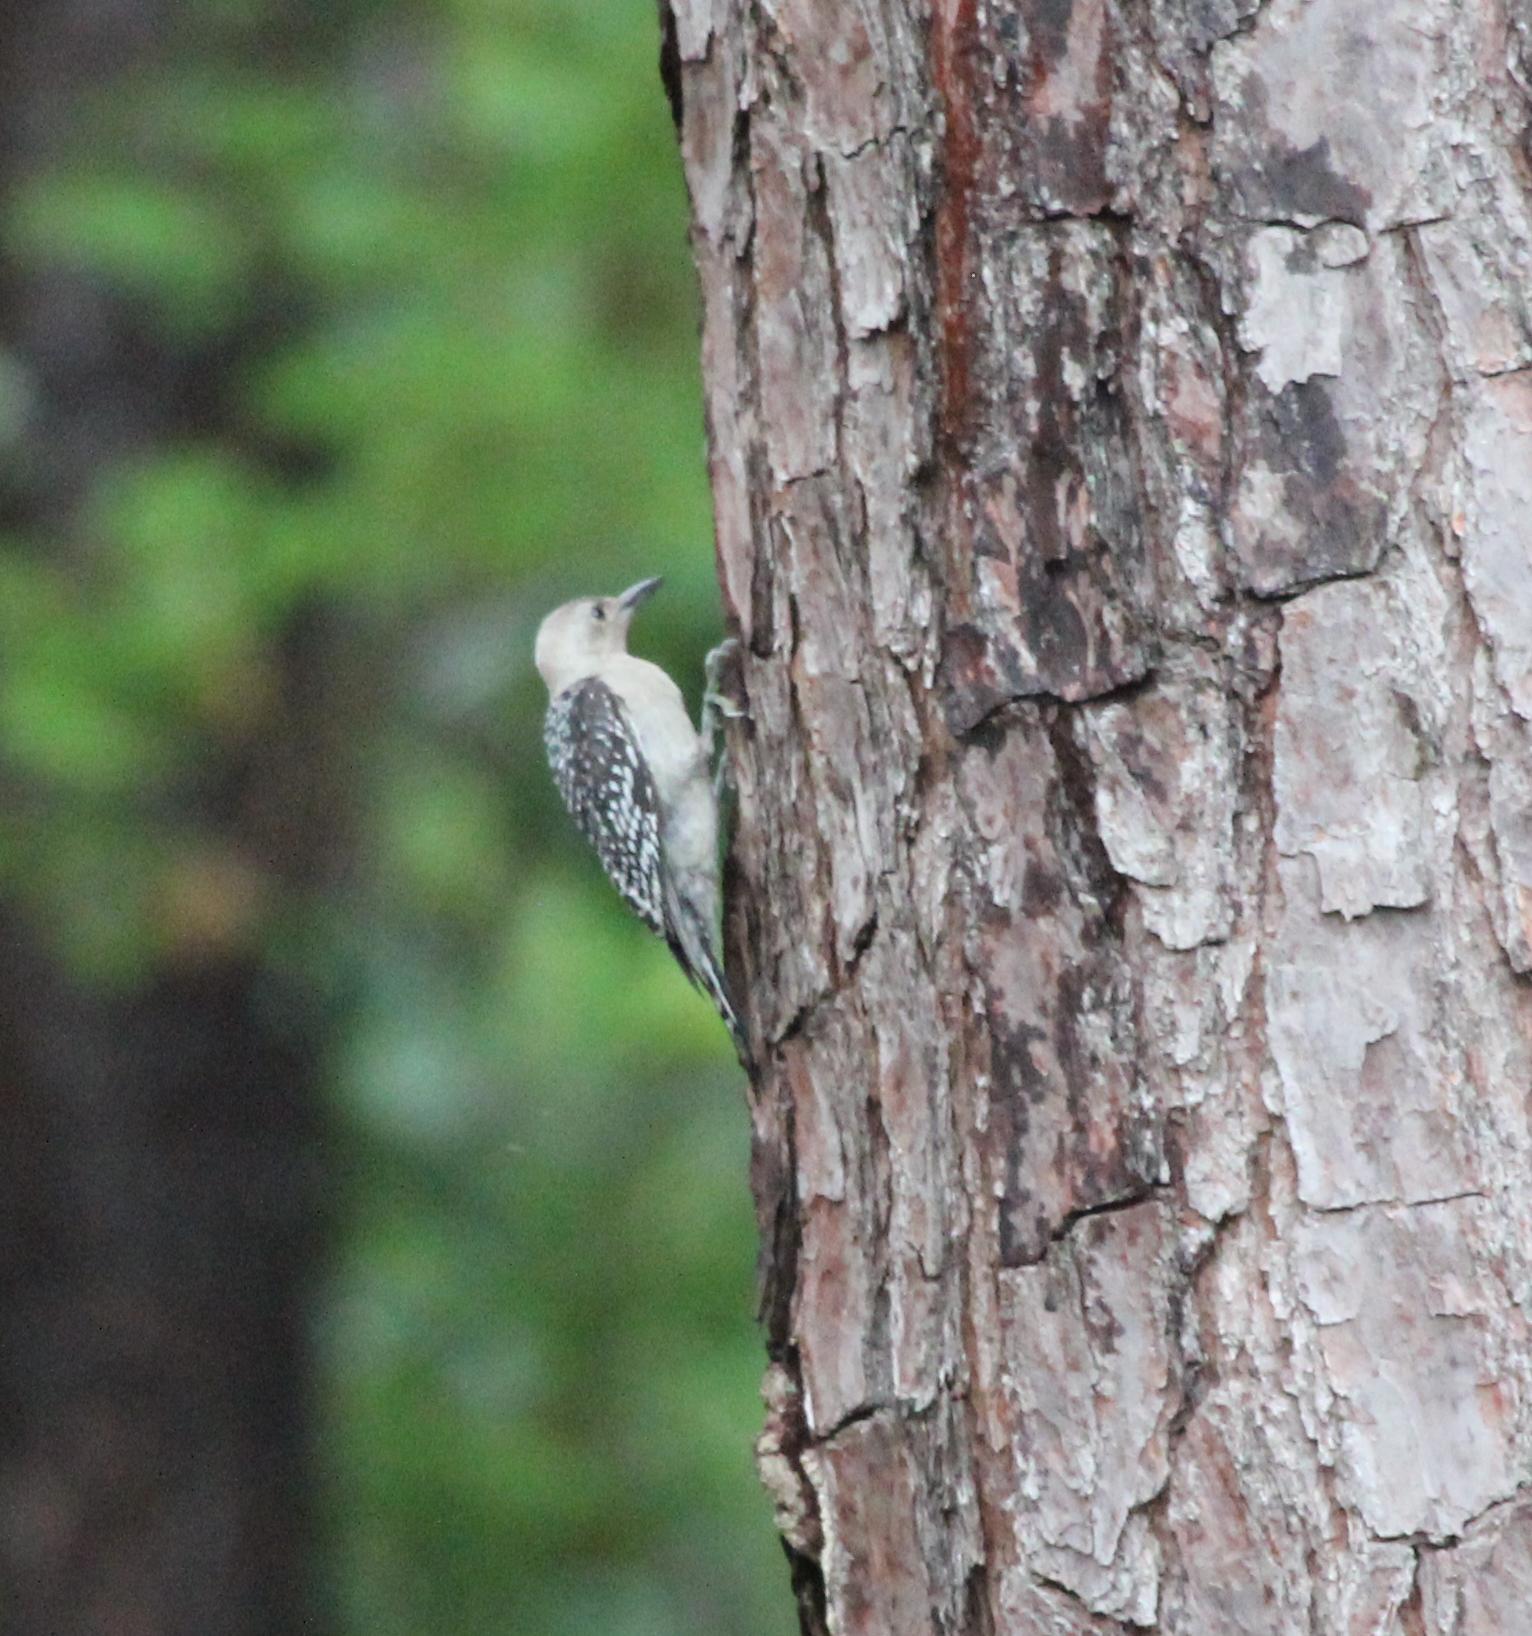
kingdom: Animalia
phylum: Chordata
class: Aves
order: Piciformes
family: Picidae
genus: Melanerpes
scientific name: Melanerpes carolinus
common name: Red-bellied woodpecker
